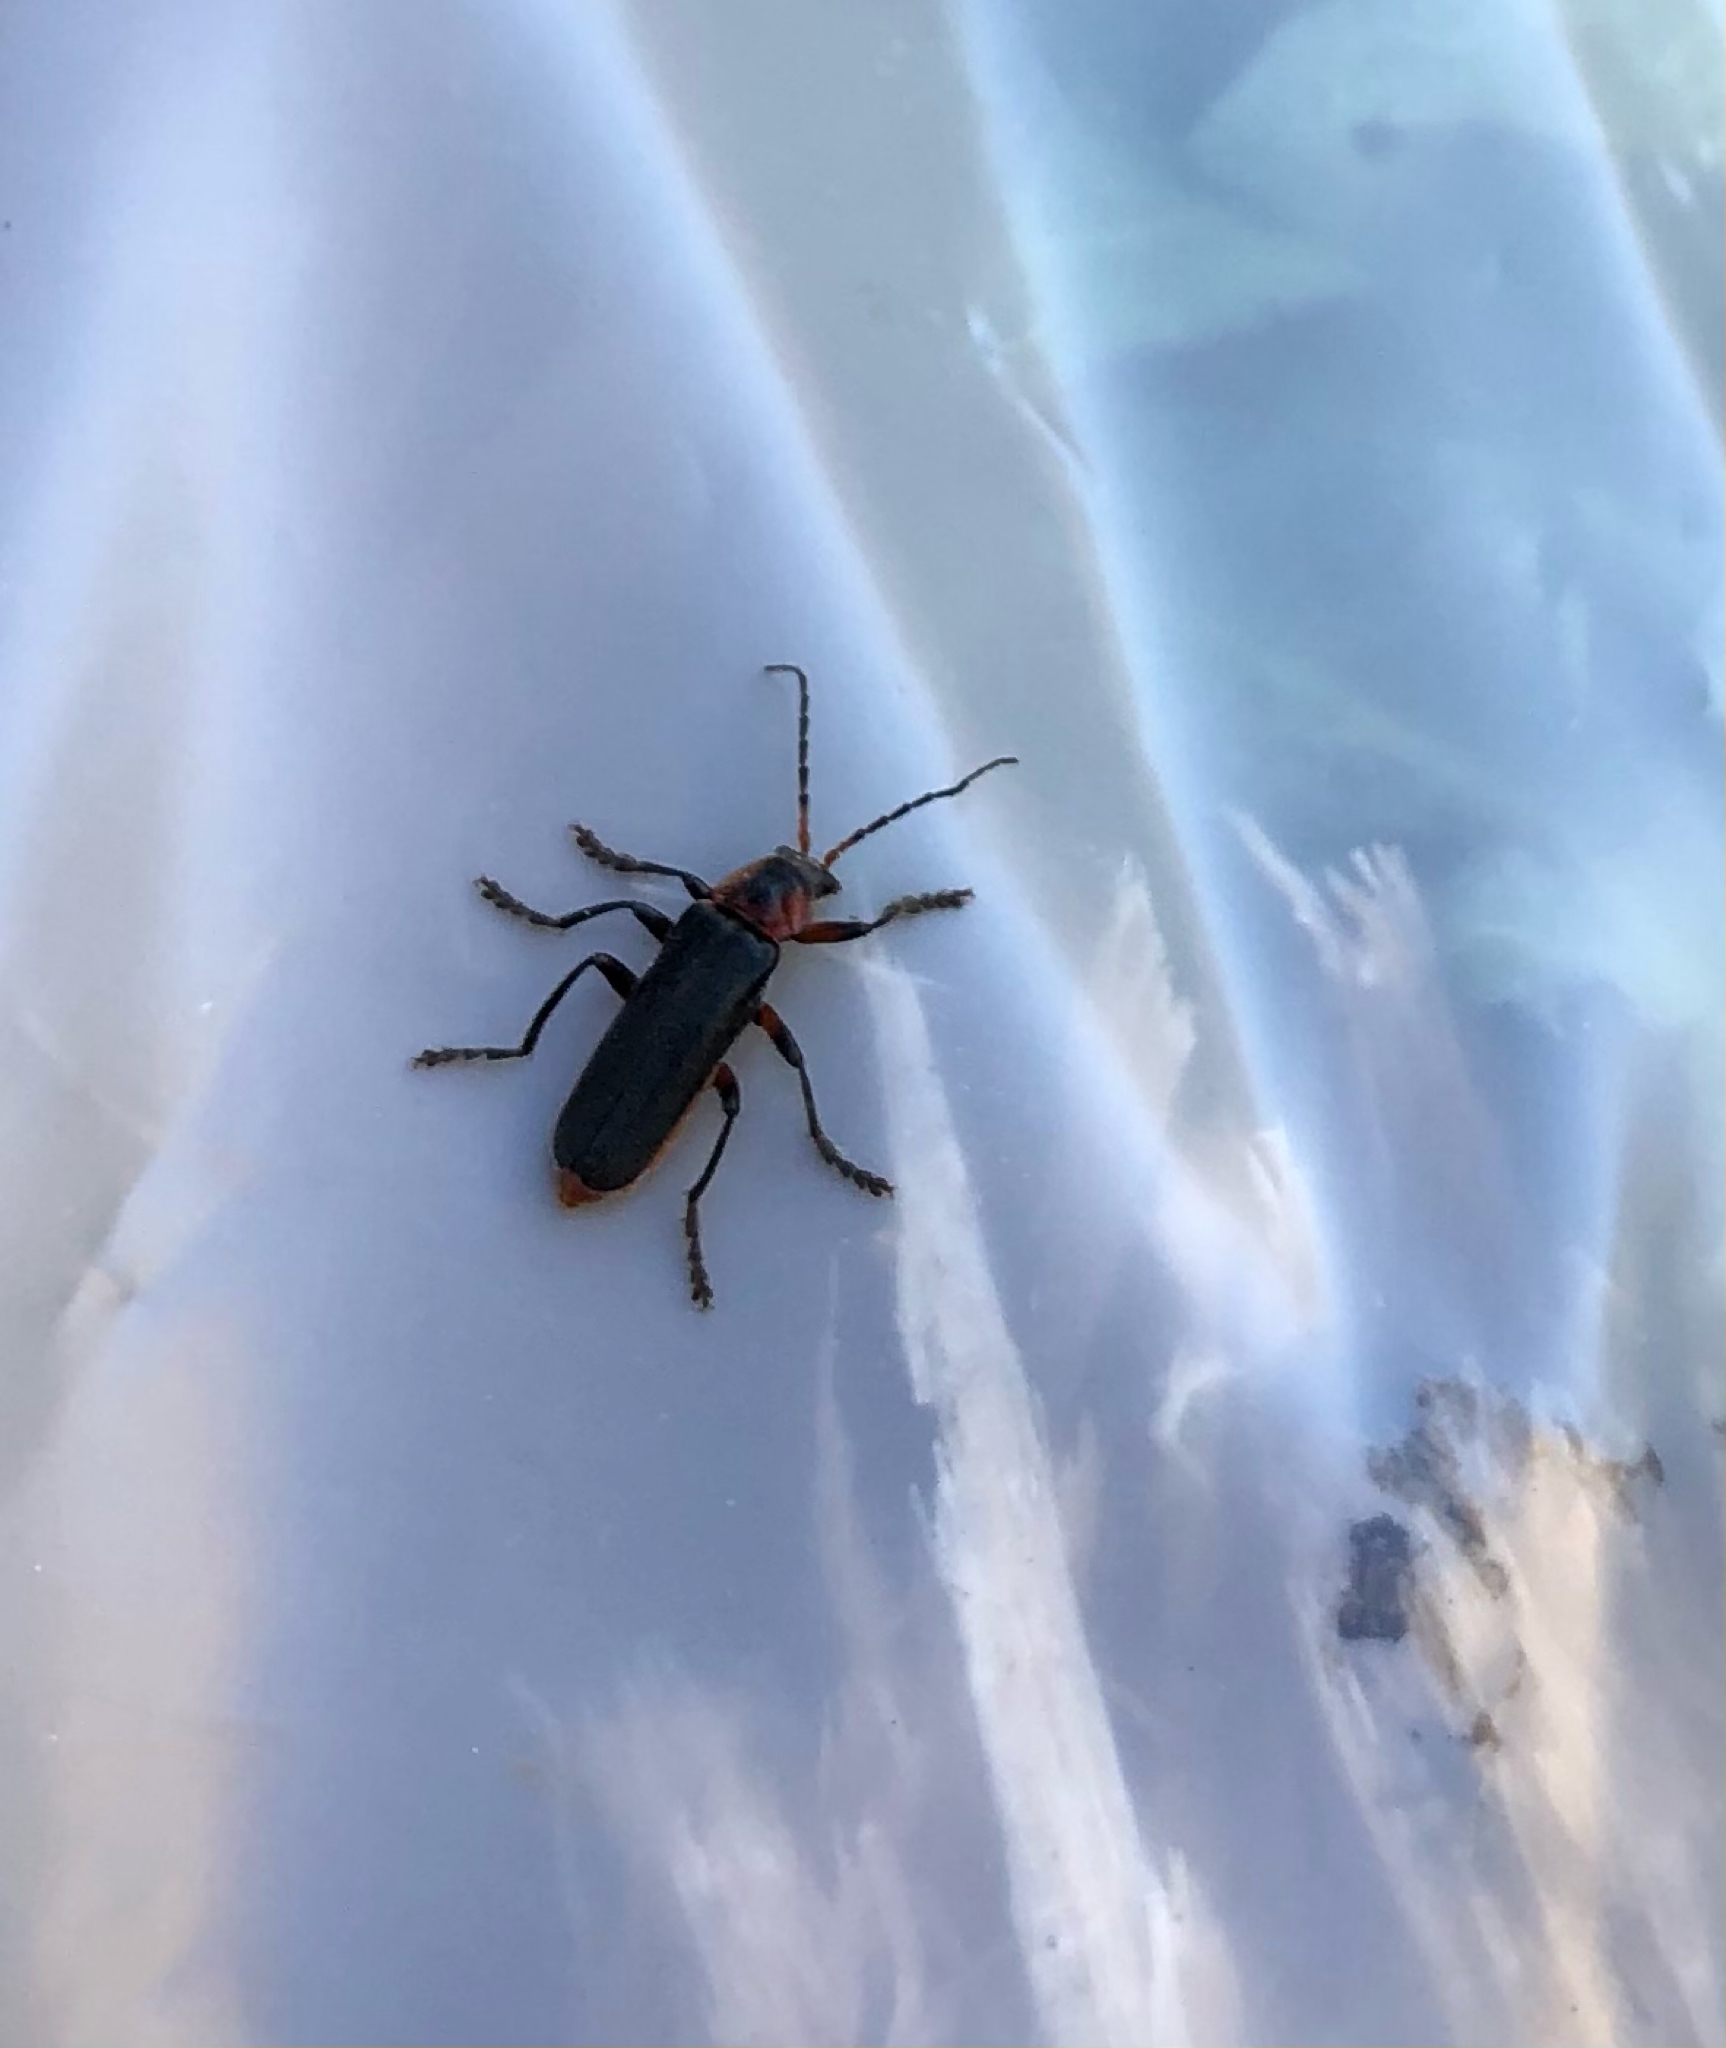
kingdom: Animalia
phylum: Arthropoda
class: Insecta
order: Coleoptera
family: Cantharidae
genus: Cantharis
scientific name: Cantharis rustica
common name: Soldier beetle
